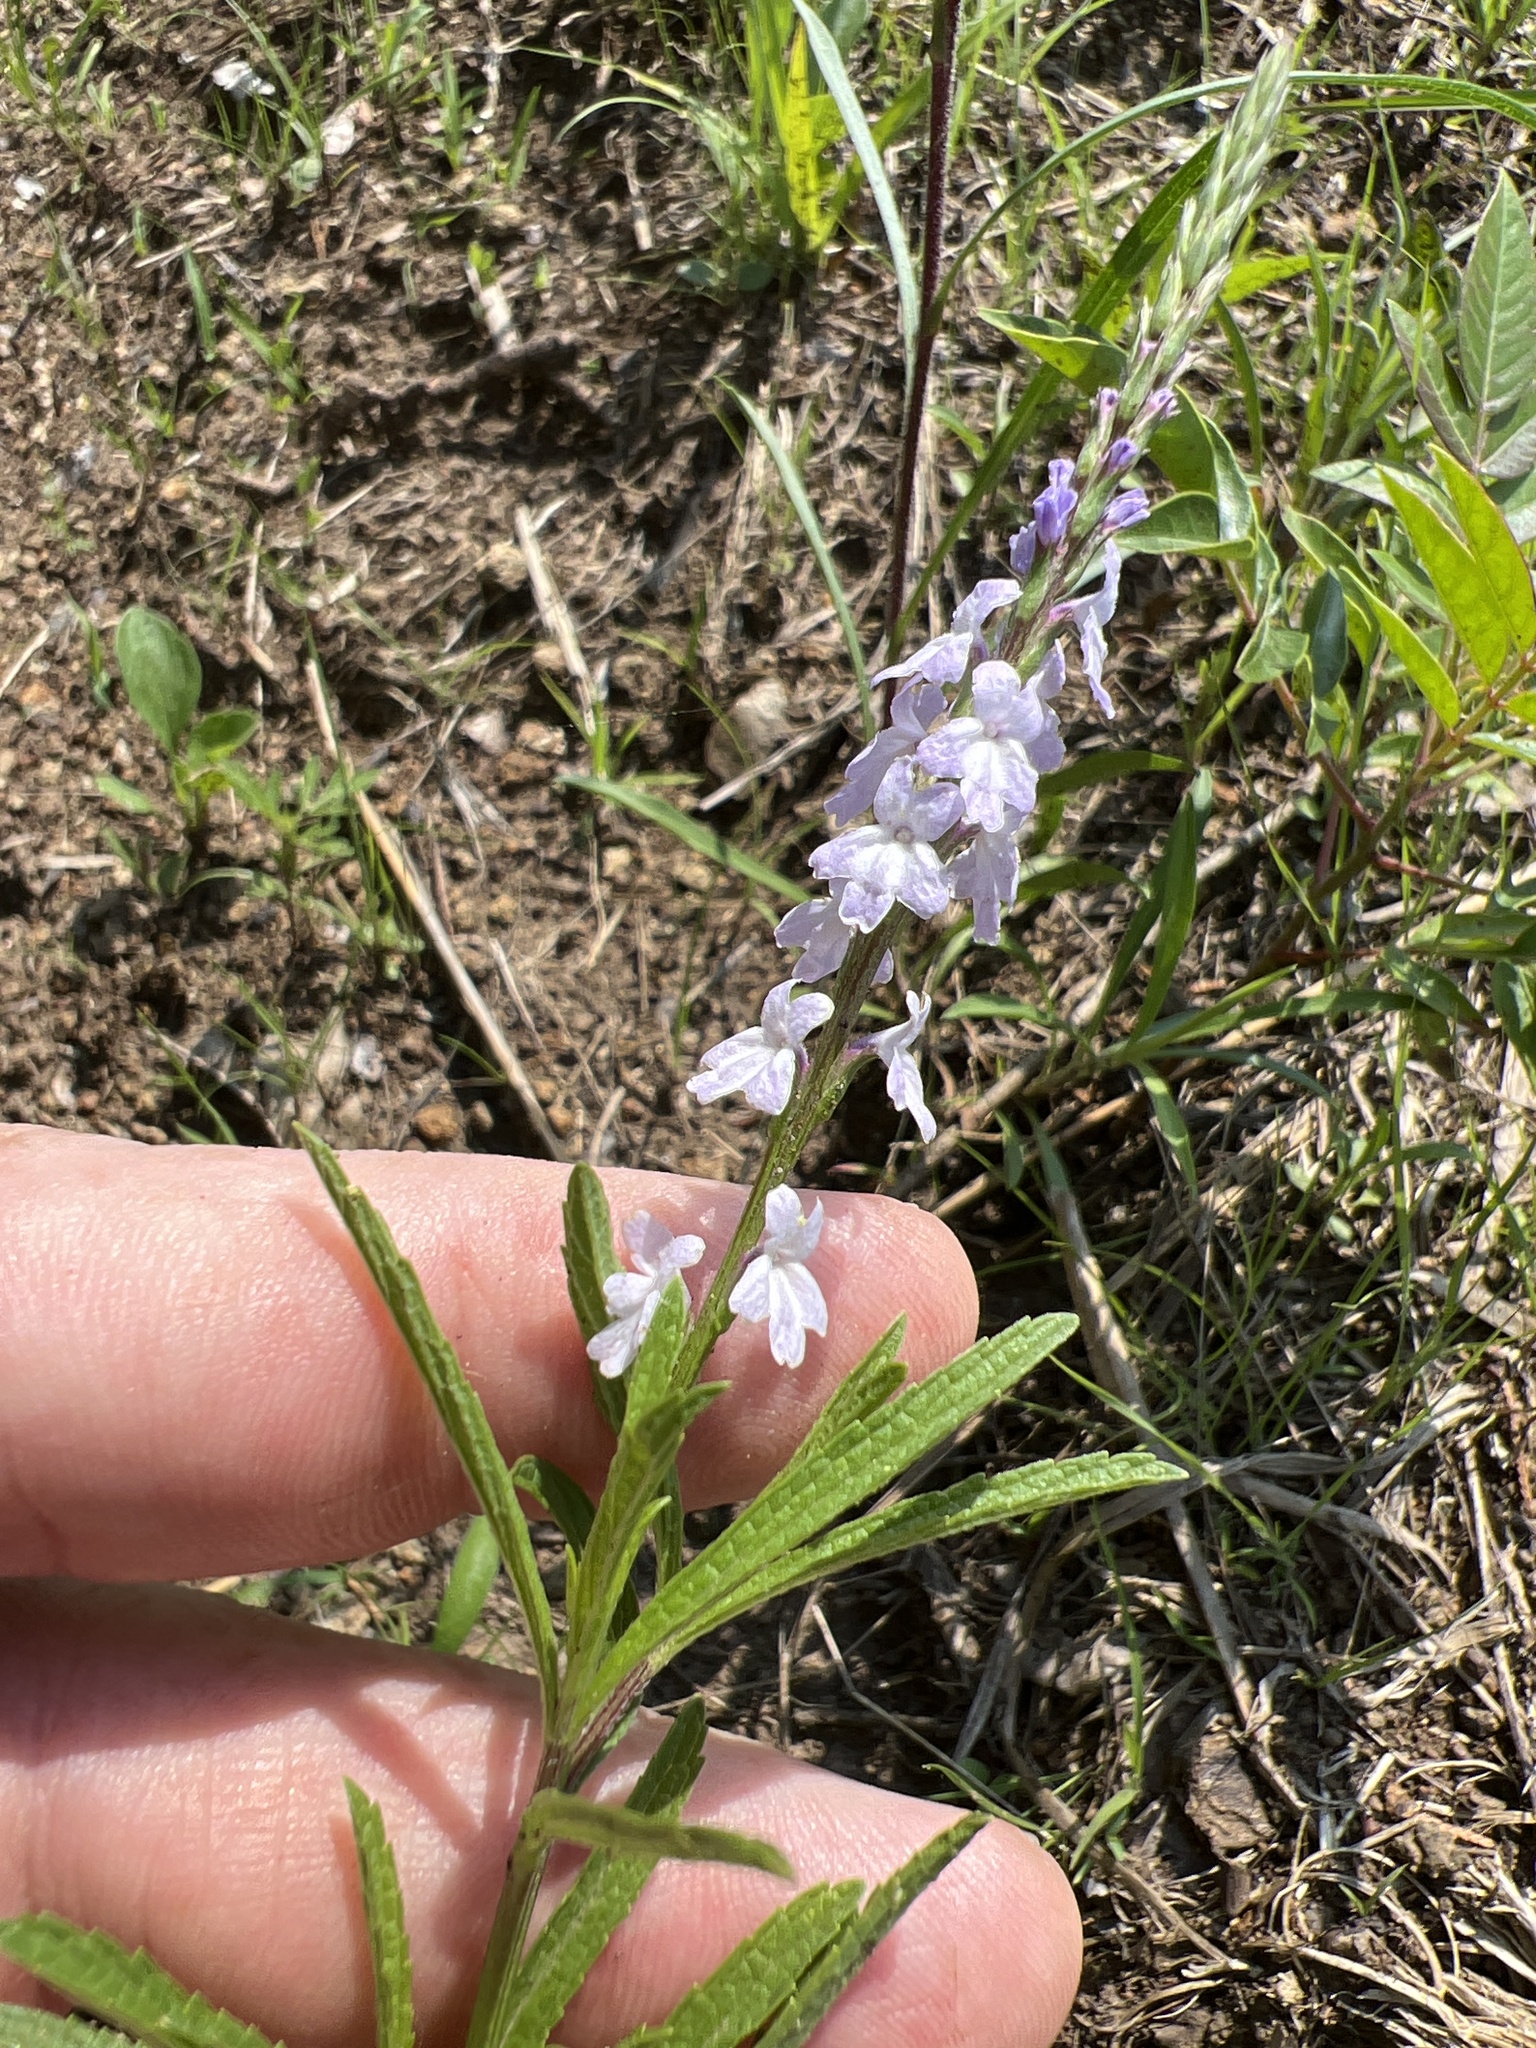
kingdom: Plantae
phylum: Tracheophyta
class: Magnoliopsida
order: Lamiales
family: Verbenaceae
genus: Verbena
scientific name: Verbena simplex
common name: Narrow-leaf vervain
